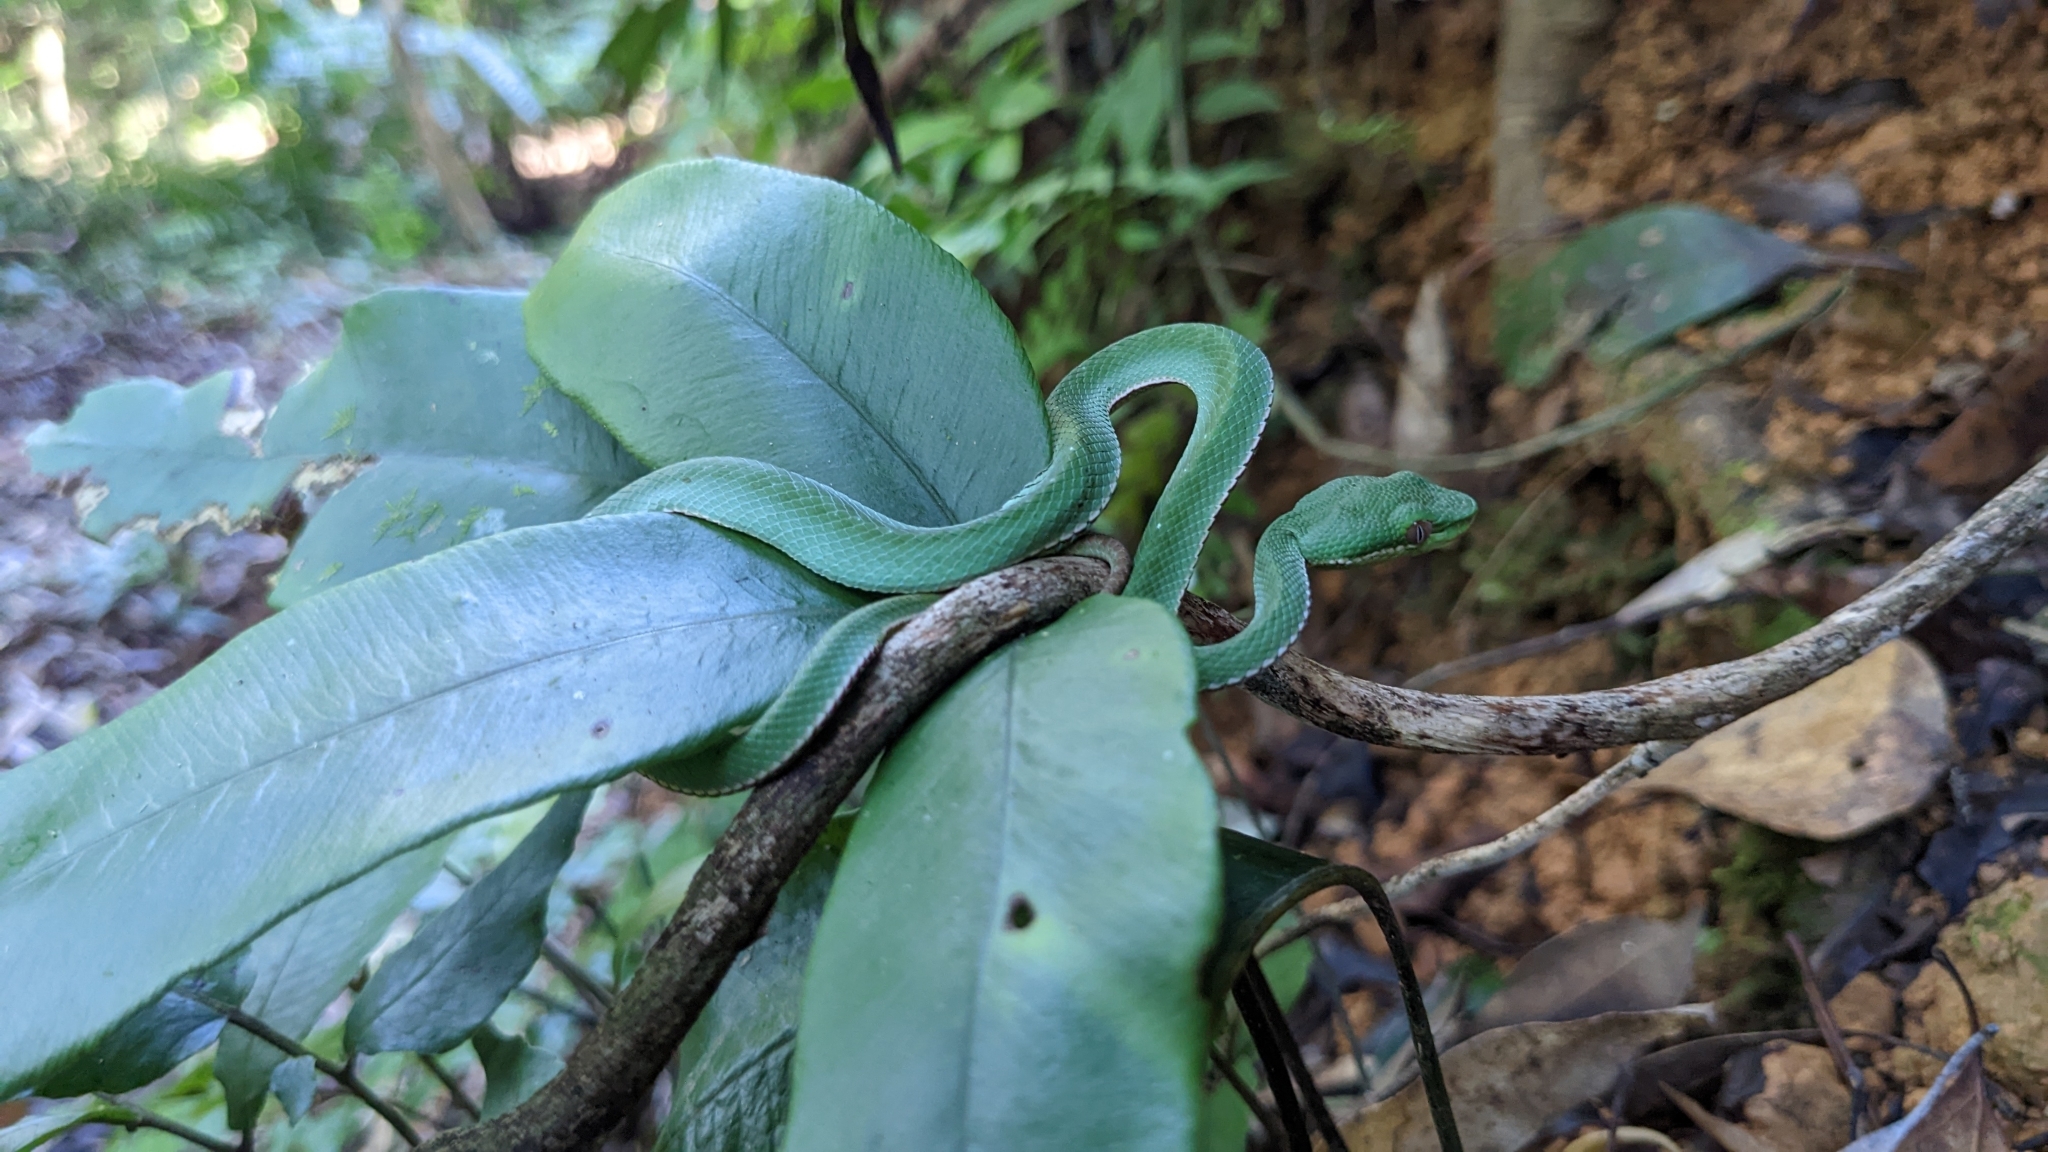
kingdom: Animalia
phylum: Chordata
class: Squamata
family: Viperidae
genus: Trimeresurus
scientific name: Trimeresurus stejnegeri
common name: Chen’s bamboo pit viper
